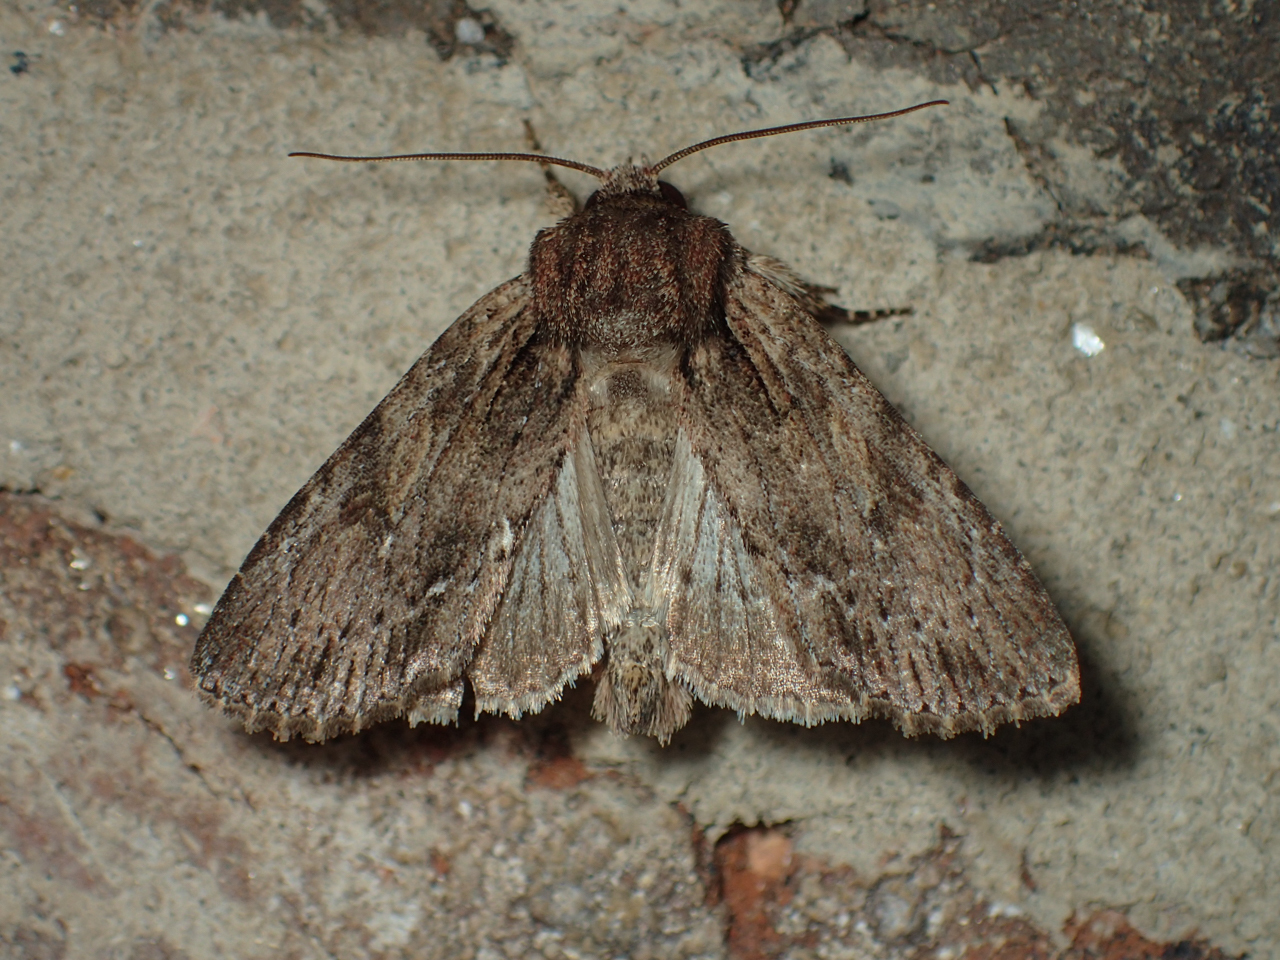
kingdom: Animalia
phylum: Arthropoda
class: Insecta
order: Lepidoptera
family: Noctuidae
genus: Achatia
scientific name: Achatia confusa
